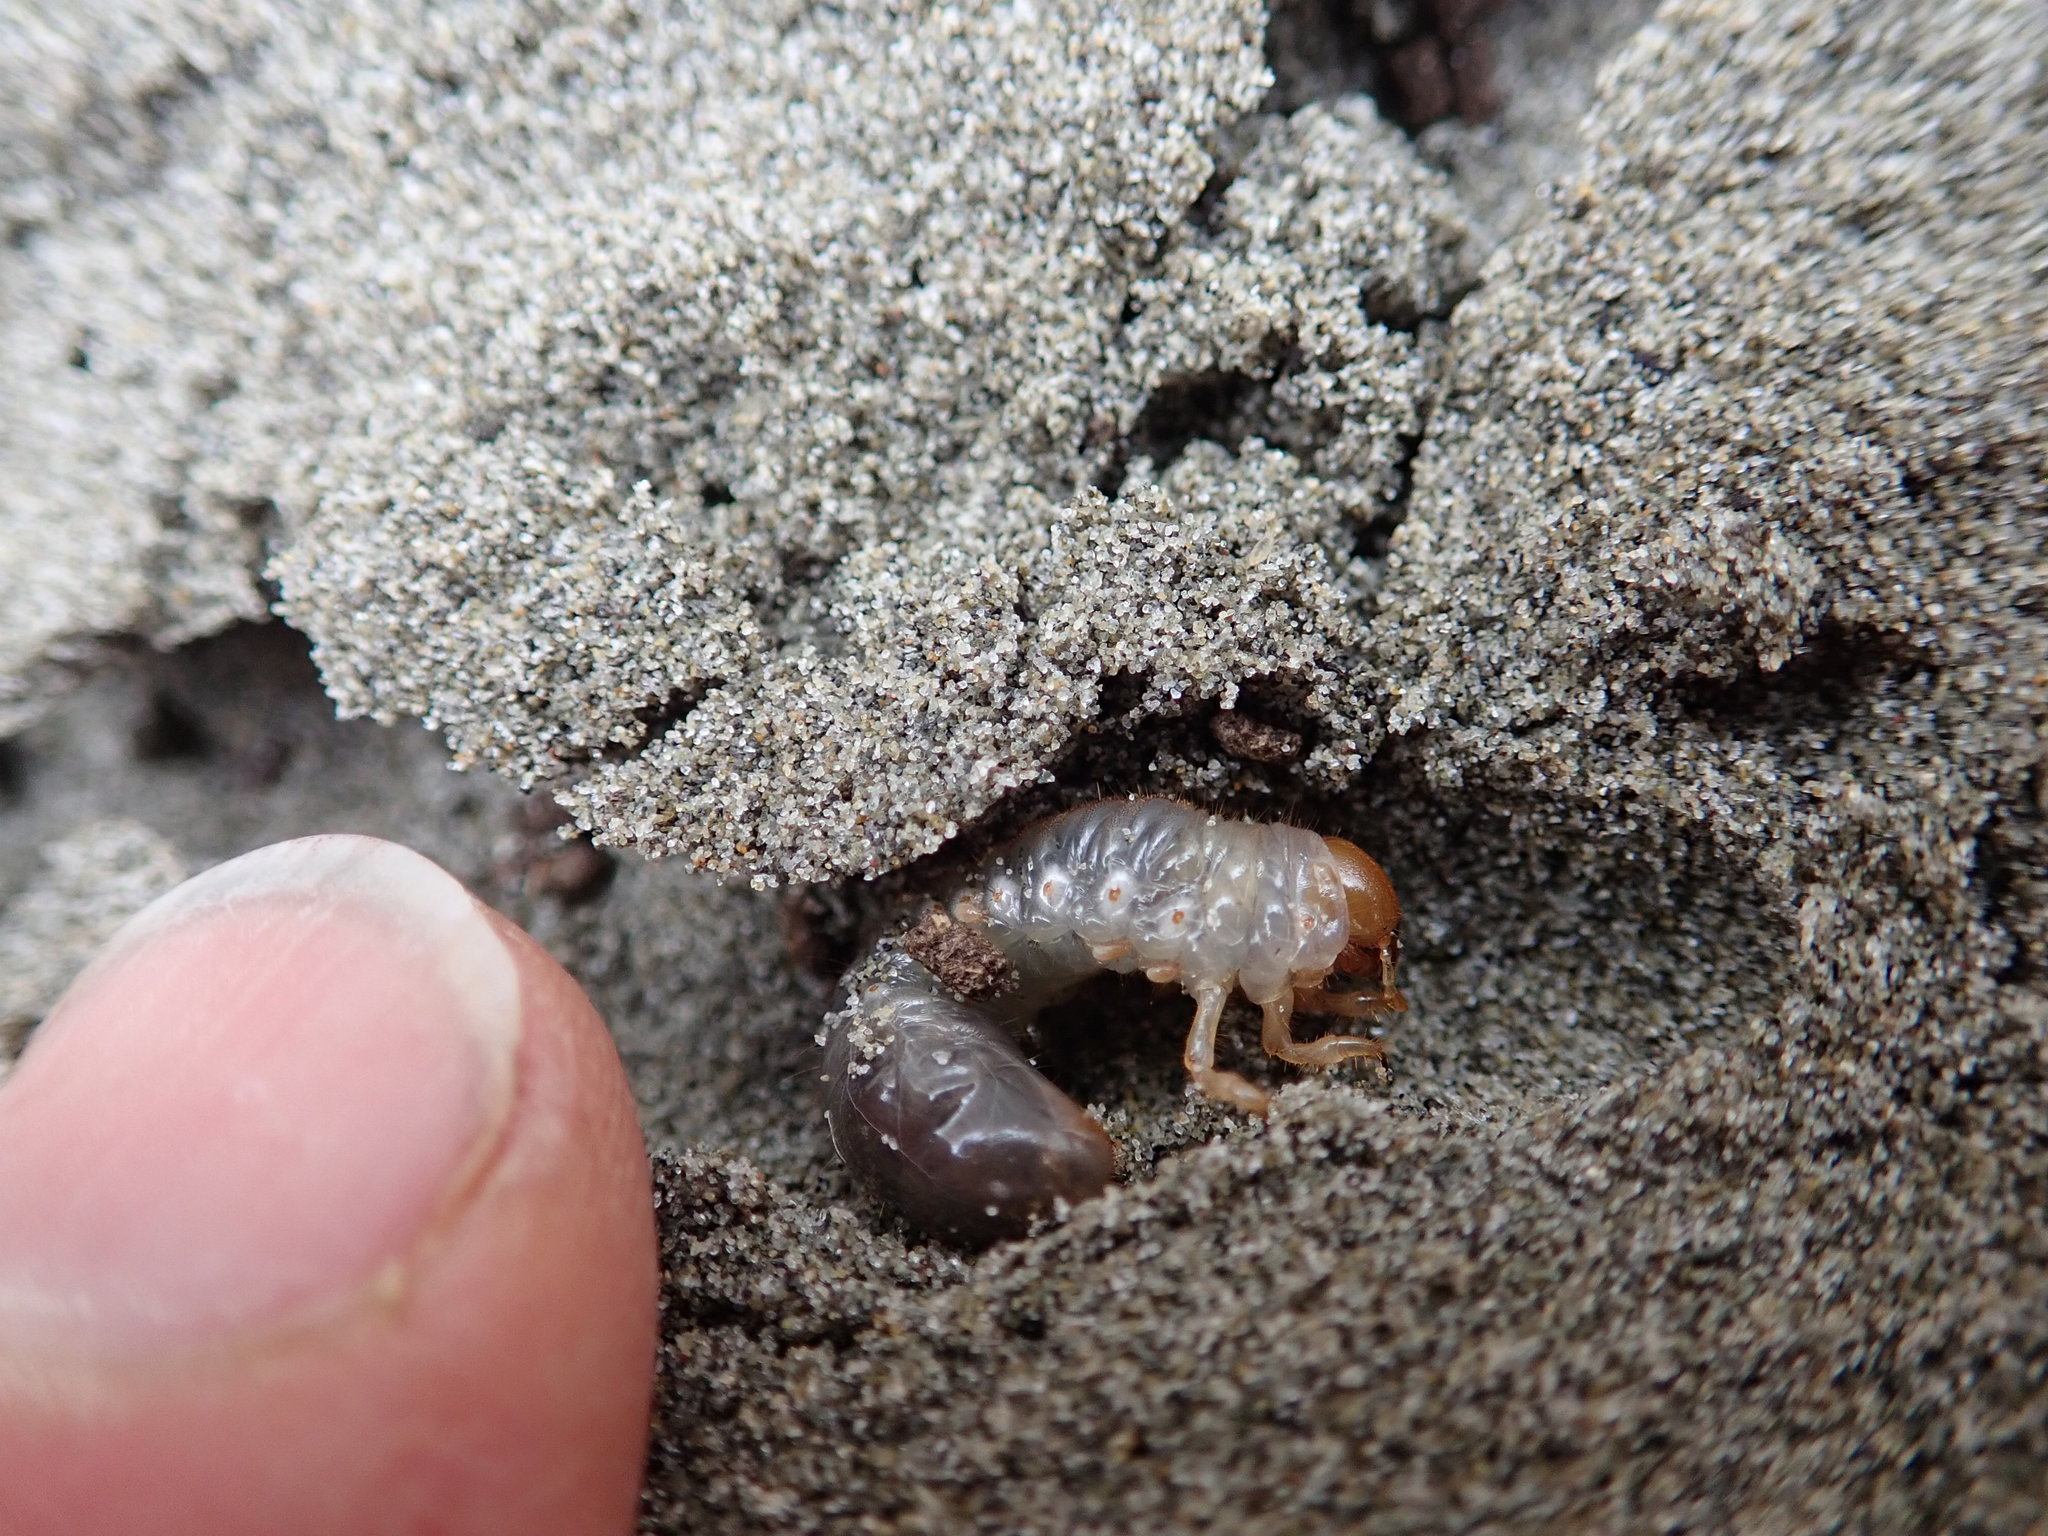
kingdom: Animalia
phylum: Arthropoda
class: Insecta
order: Coleoptera
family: Scarabaeidae
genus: Pericoptus
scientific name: Pericoptus truncatus
